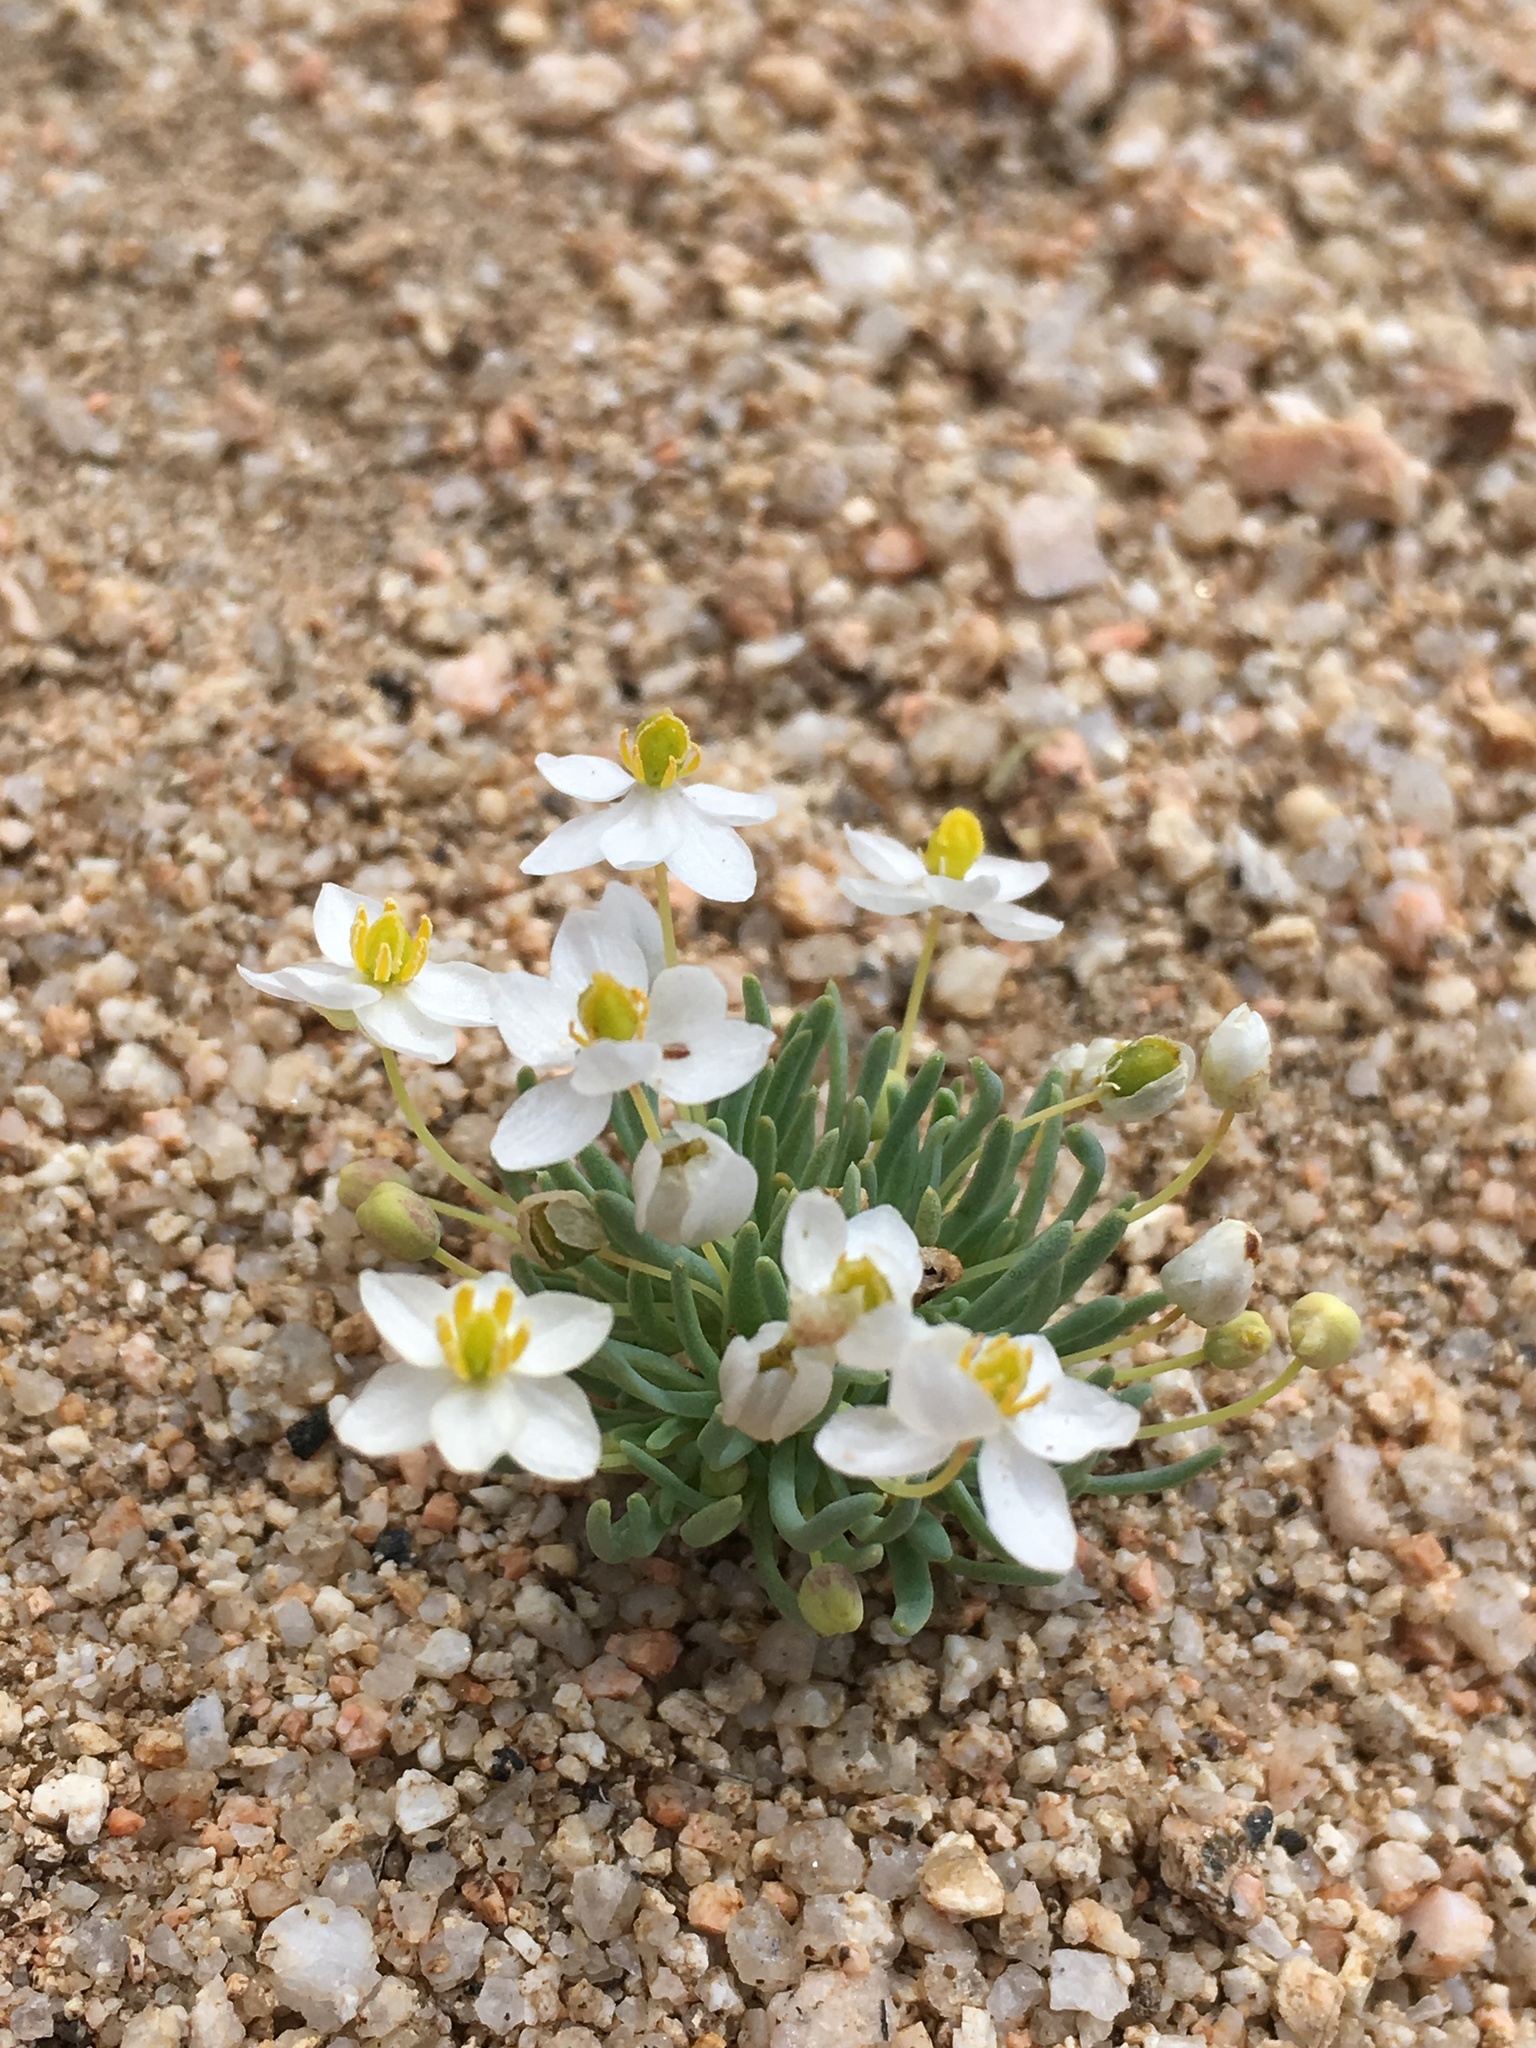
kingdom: Plantae
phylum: Tracheophyta
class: Magnoliopsida
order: Ranunculales
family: Papaveraceae
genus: Canbya
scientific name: Canbya candida
